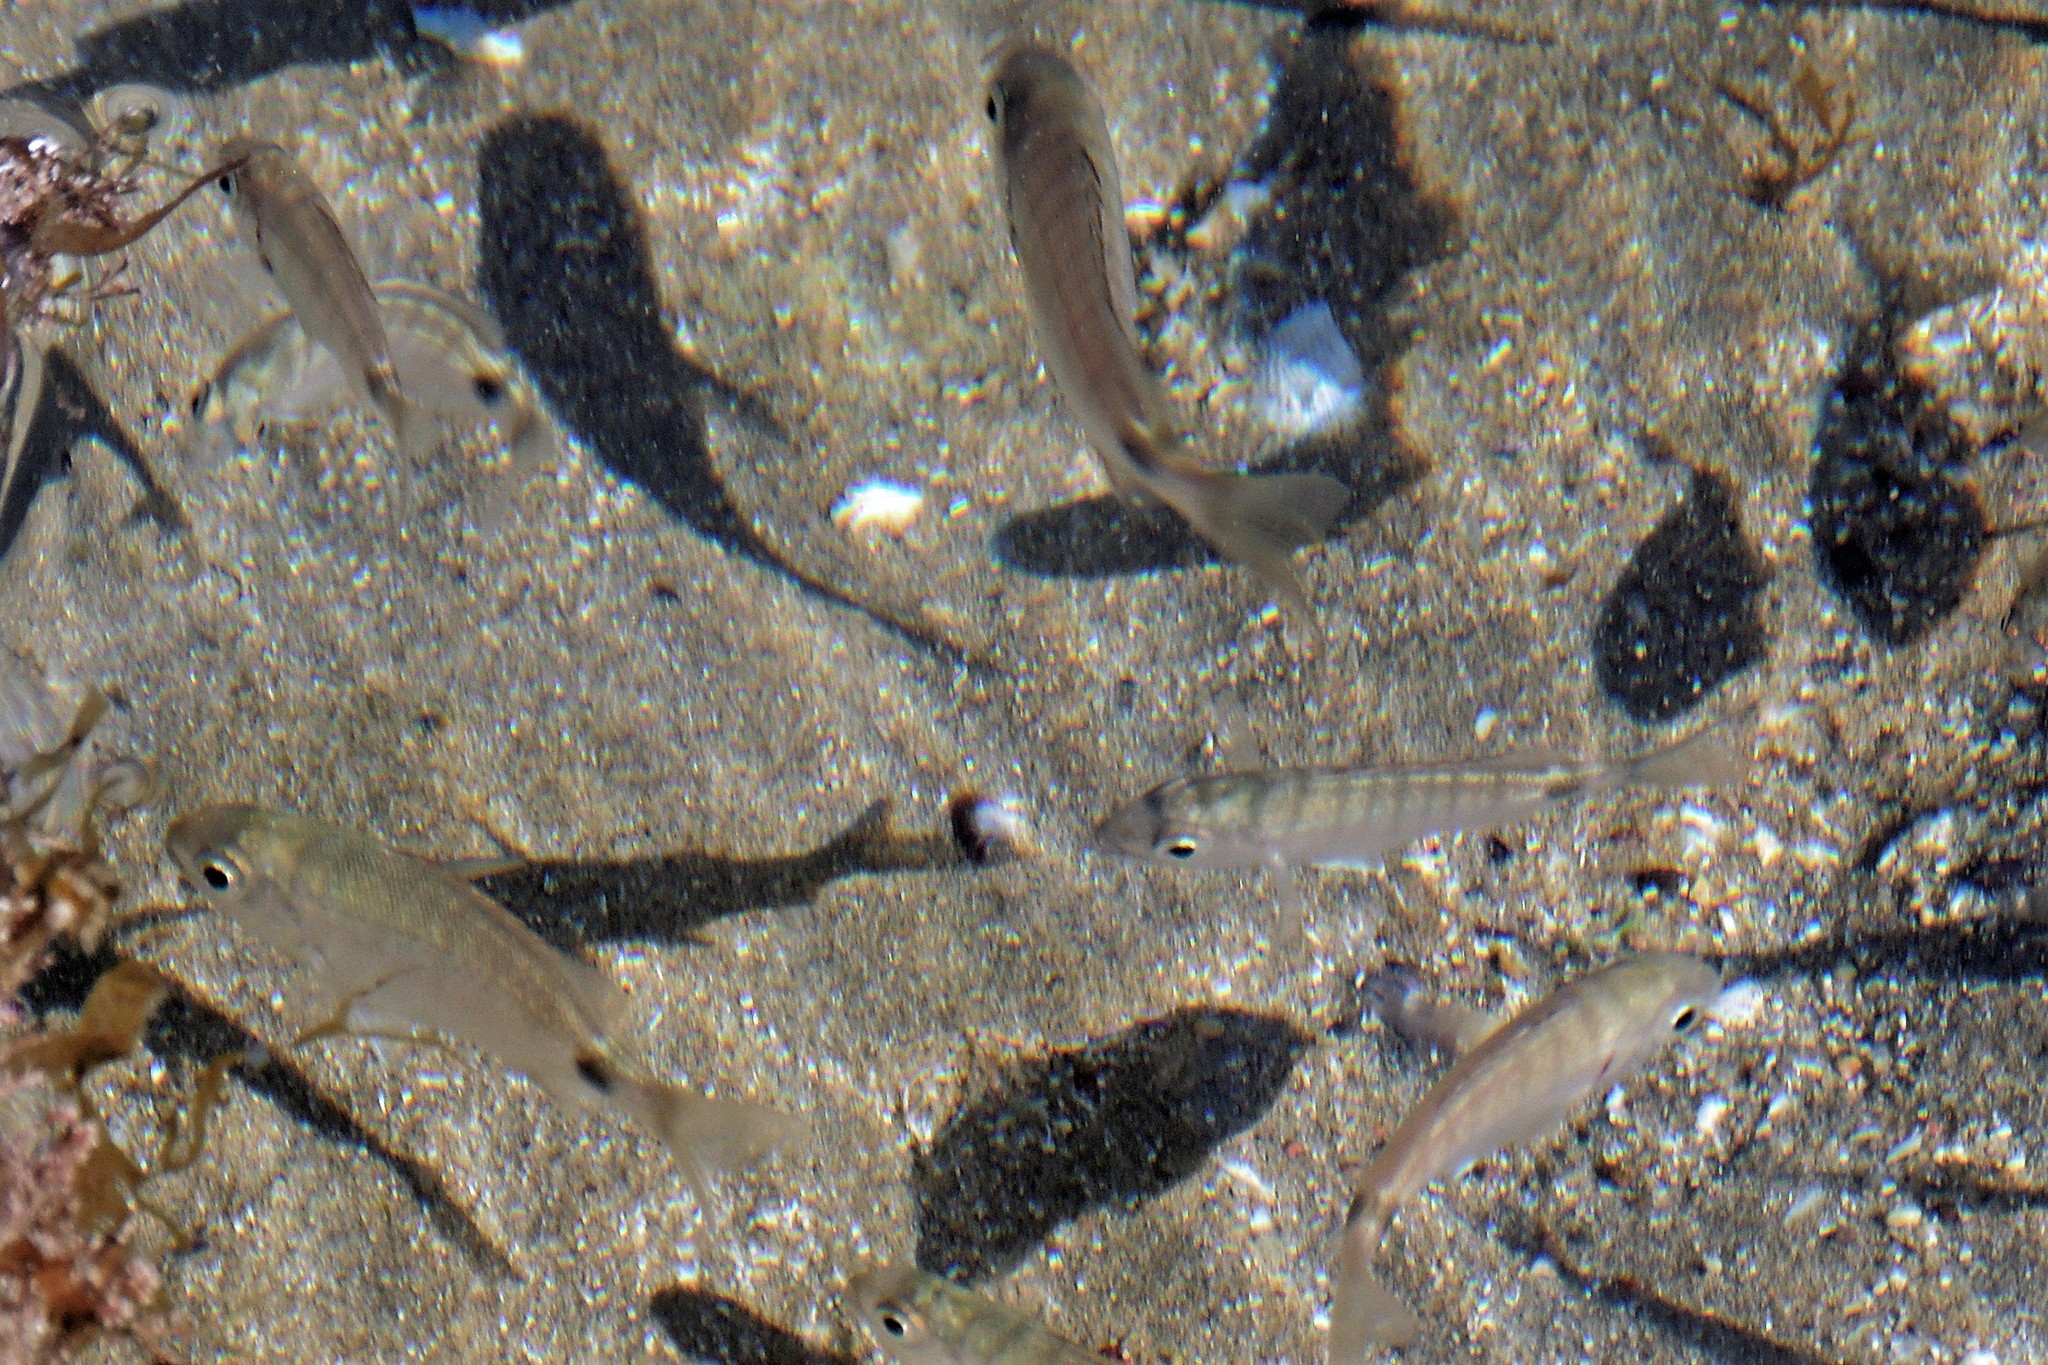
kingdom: Animalia
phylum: Chordata
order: Perciformes
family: Sparidae
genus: Diplodus
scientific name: Diplodus argenteus
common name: South-american silver porgy
